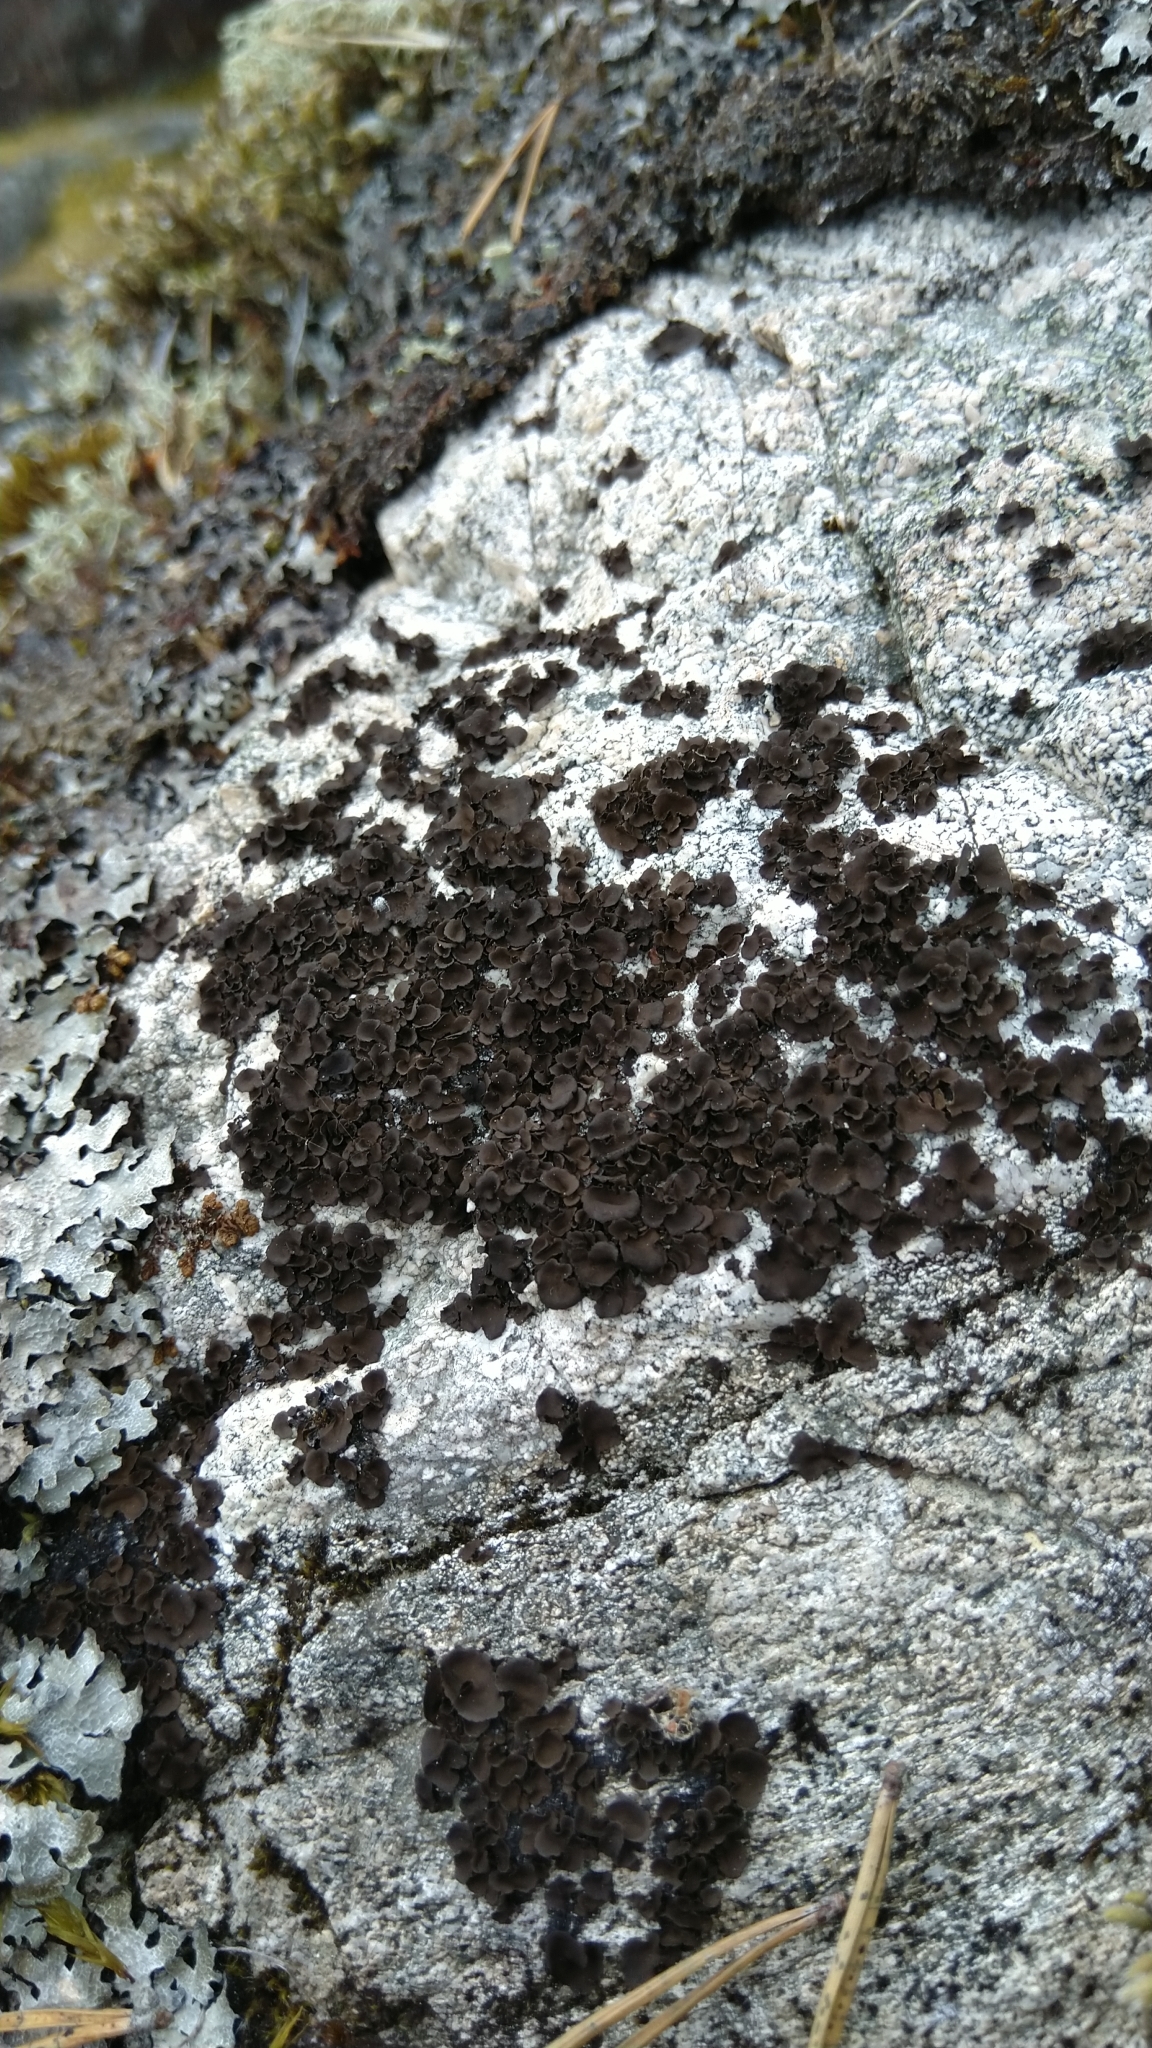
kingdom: Fungi
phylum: Ascomycota
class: Lecanoromycetes
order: Umbilicariales
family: Umbilicariaceae
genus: Umbilicaria
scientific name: Umbilicaria polyphylla
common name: Petalled rocktripe lichen
